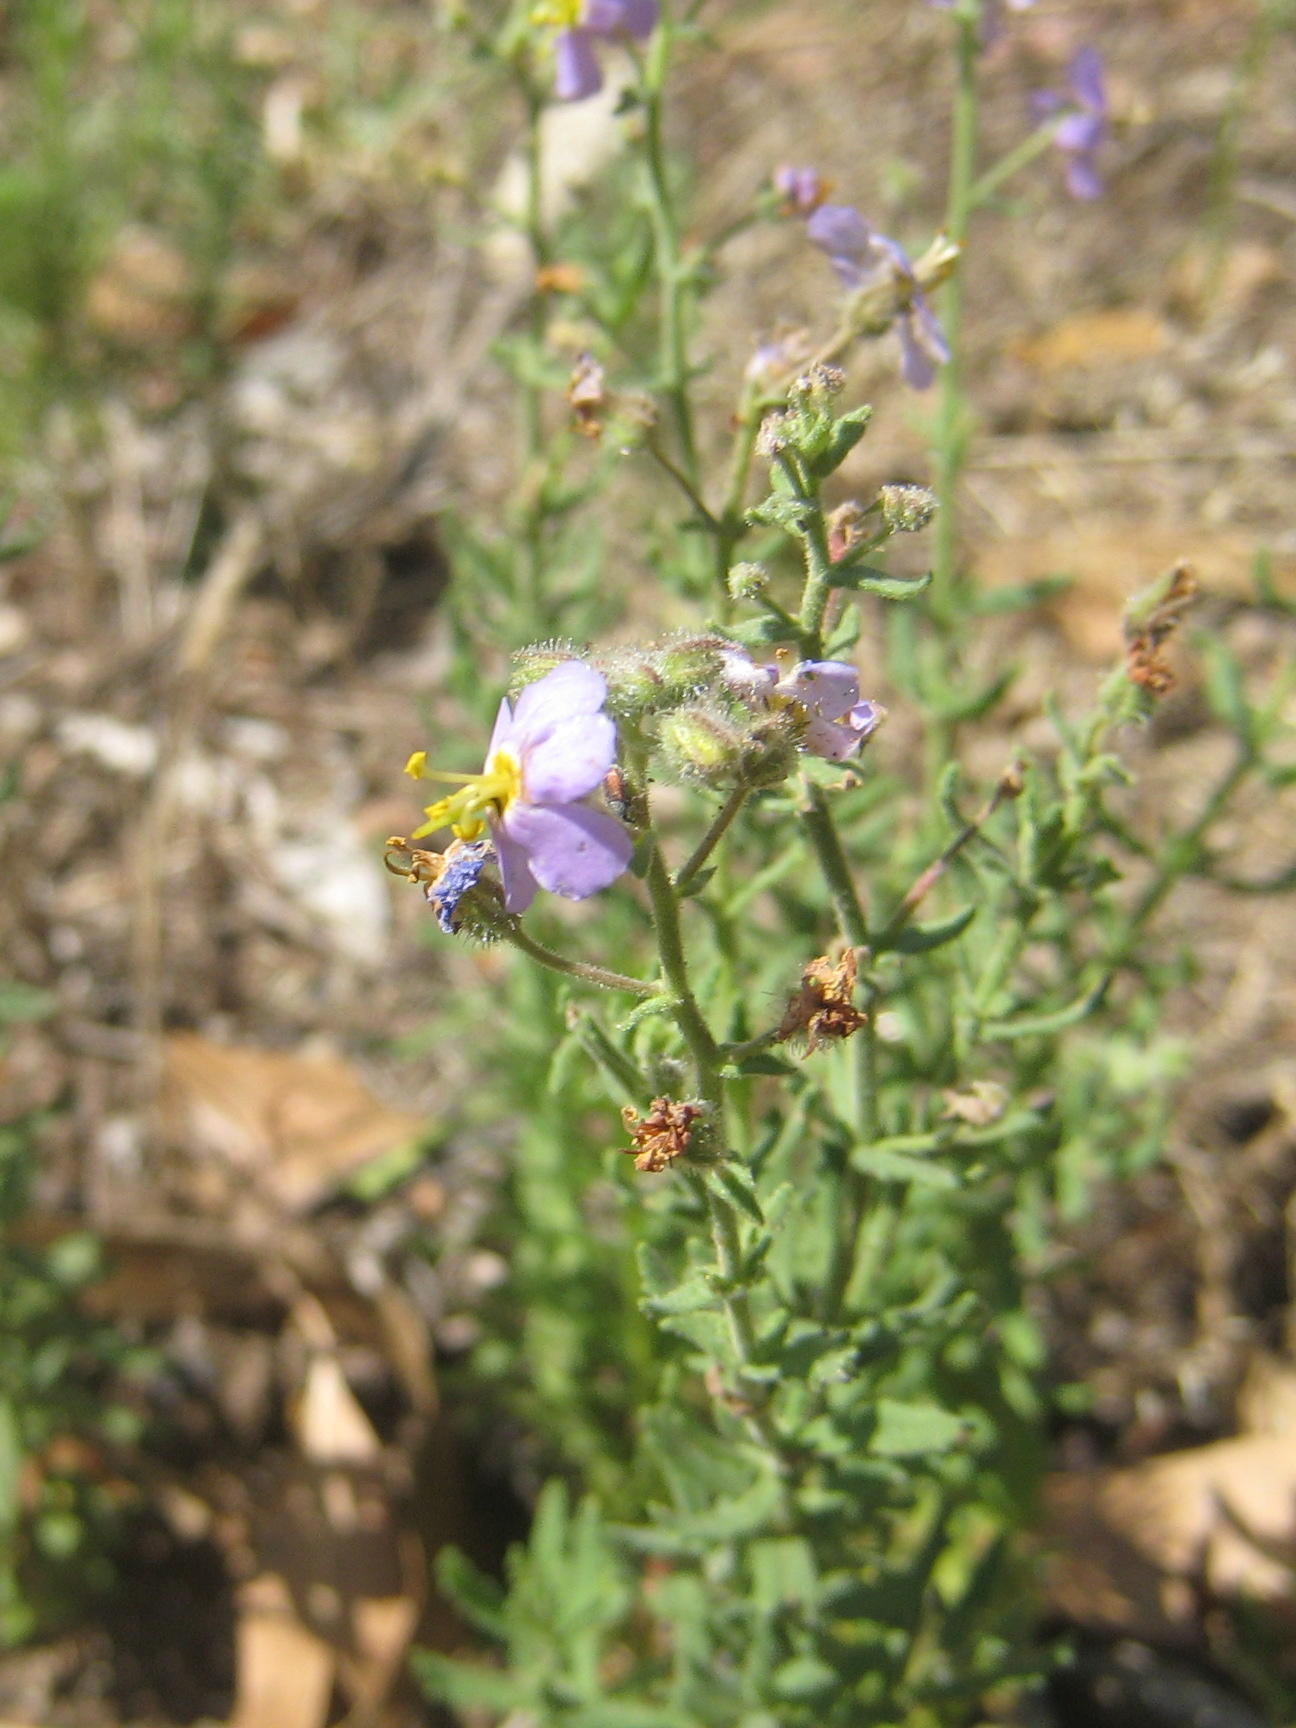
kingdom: Plantae
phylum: Tracheophyta
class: Magnoliopsida
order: Lamiales
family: Scrophulariaceae
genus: Chaenostoma
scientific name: Chaenostoma caeruleum
